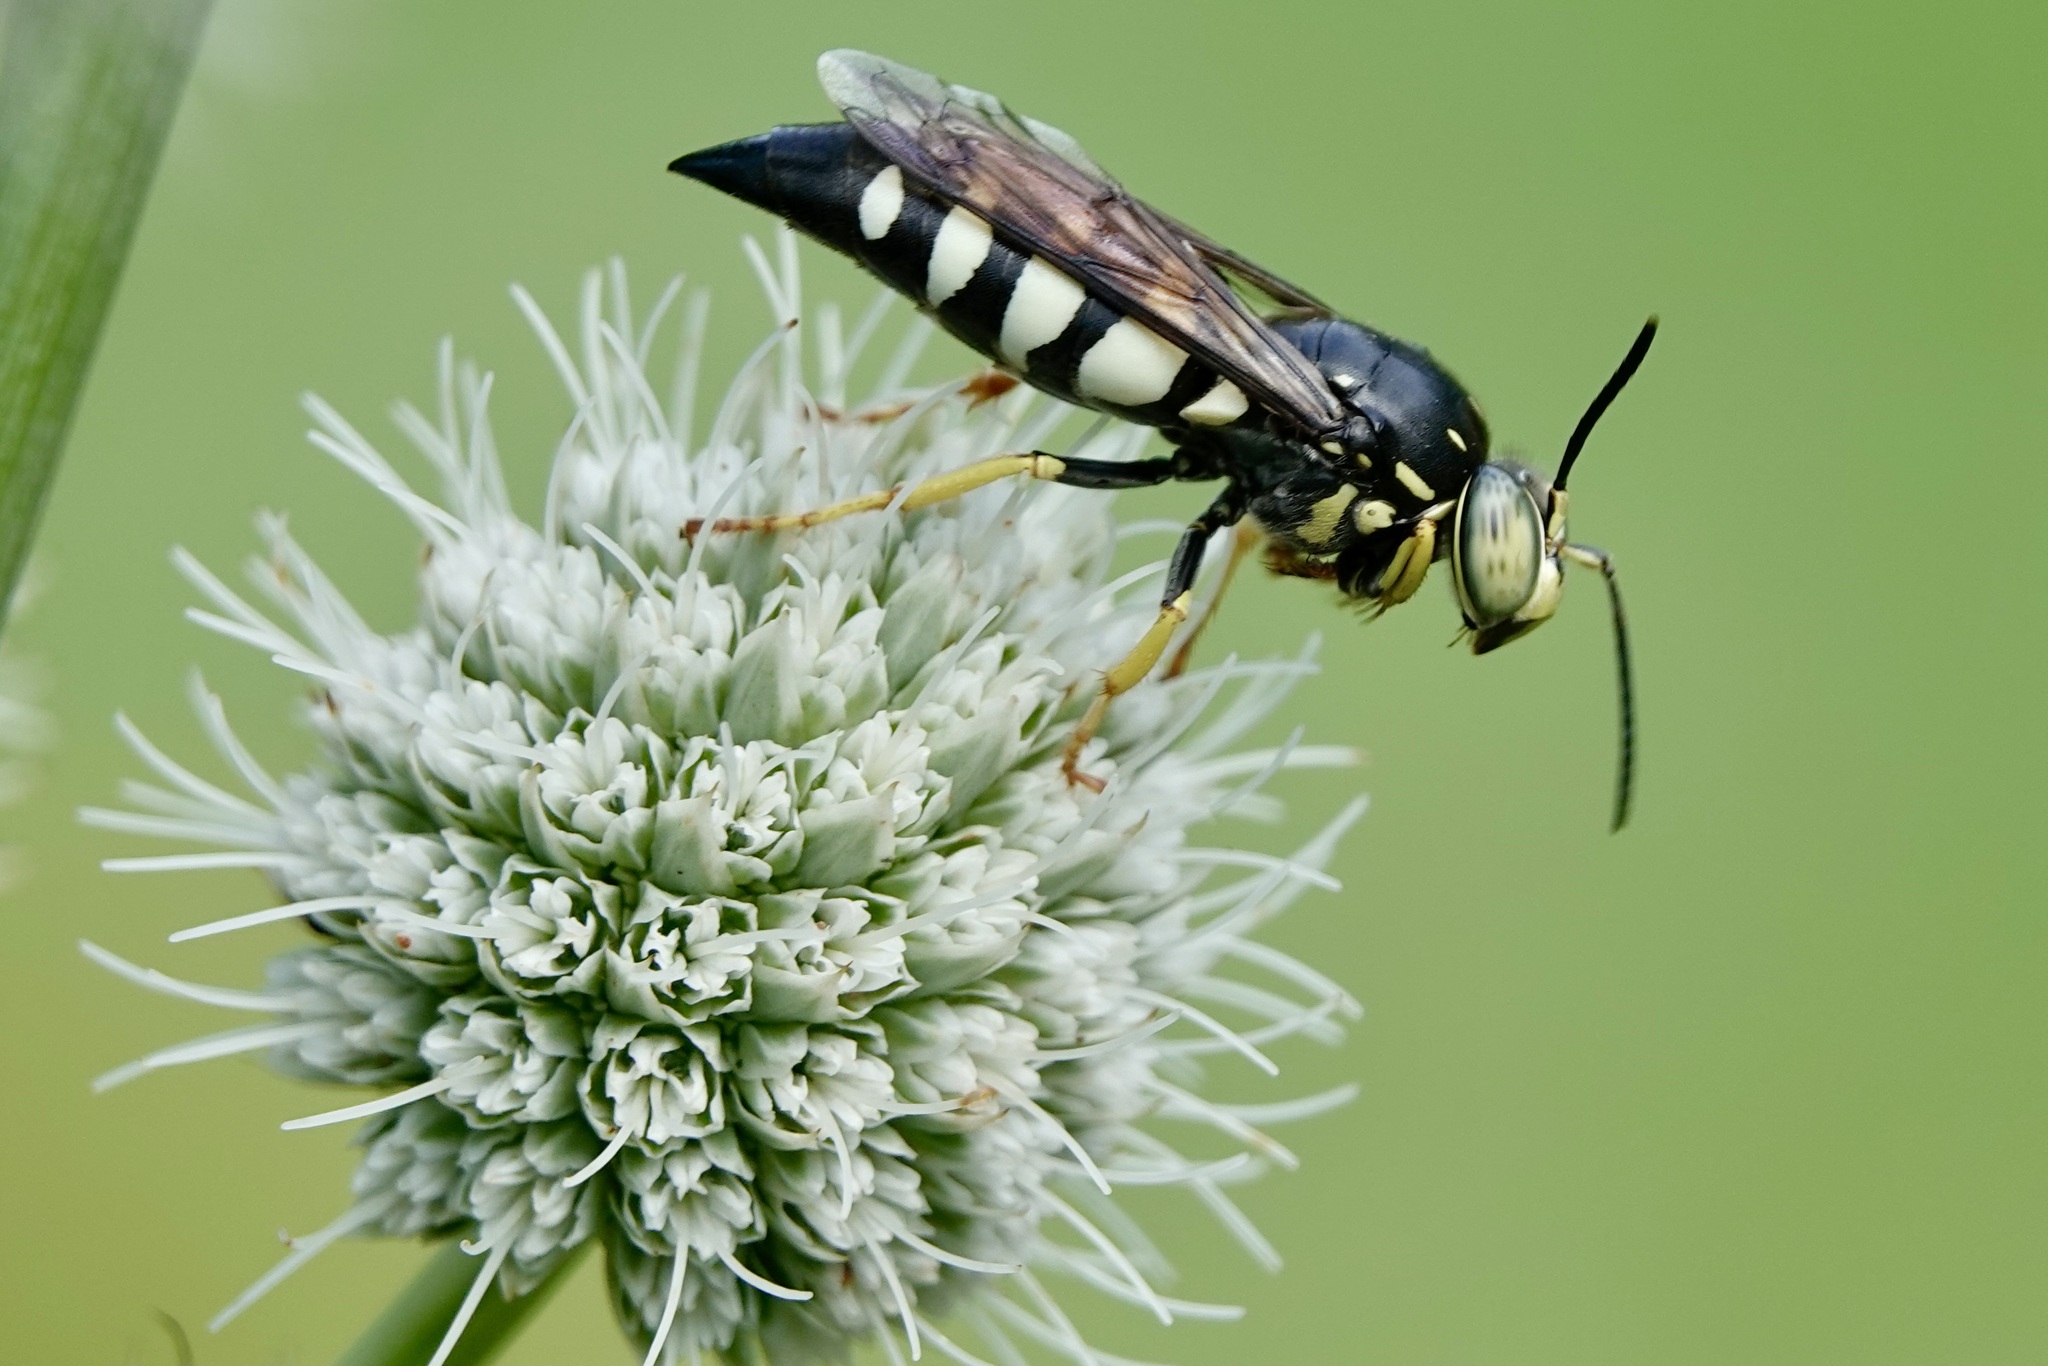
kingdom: Animalia
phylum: Arthropoda
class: Insecta
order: Hymenoptera
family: Crabronidae
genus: Bicyrtes
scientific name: Bicyrtes quadrifasciatus
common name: Four-banded stink bug hunter wasp
